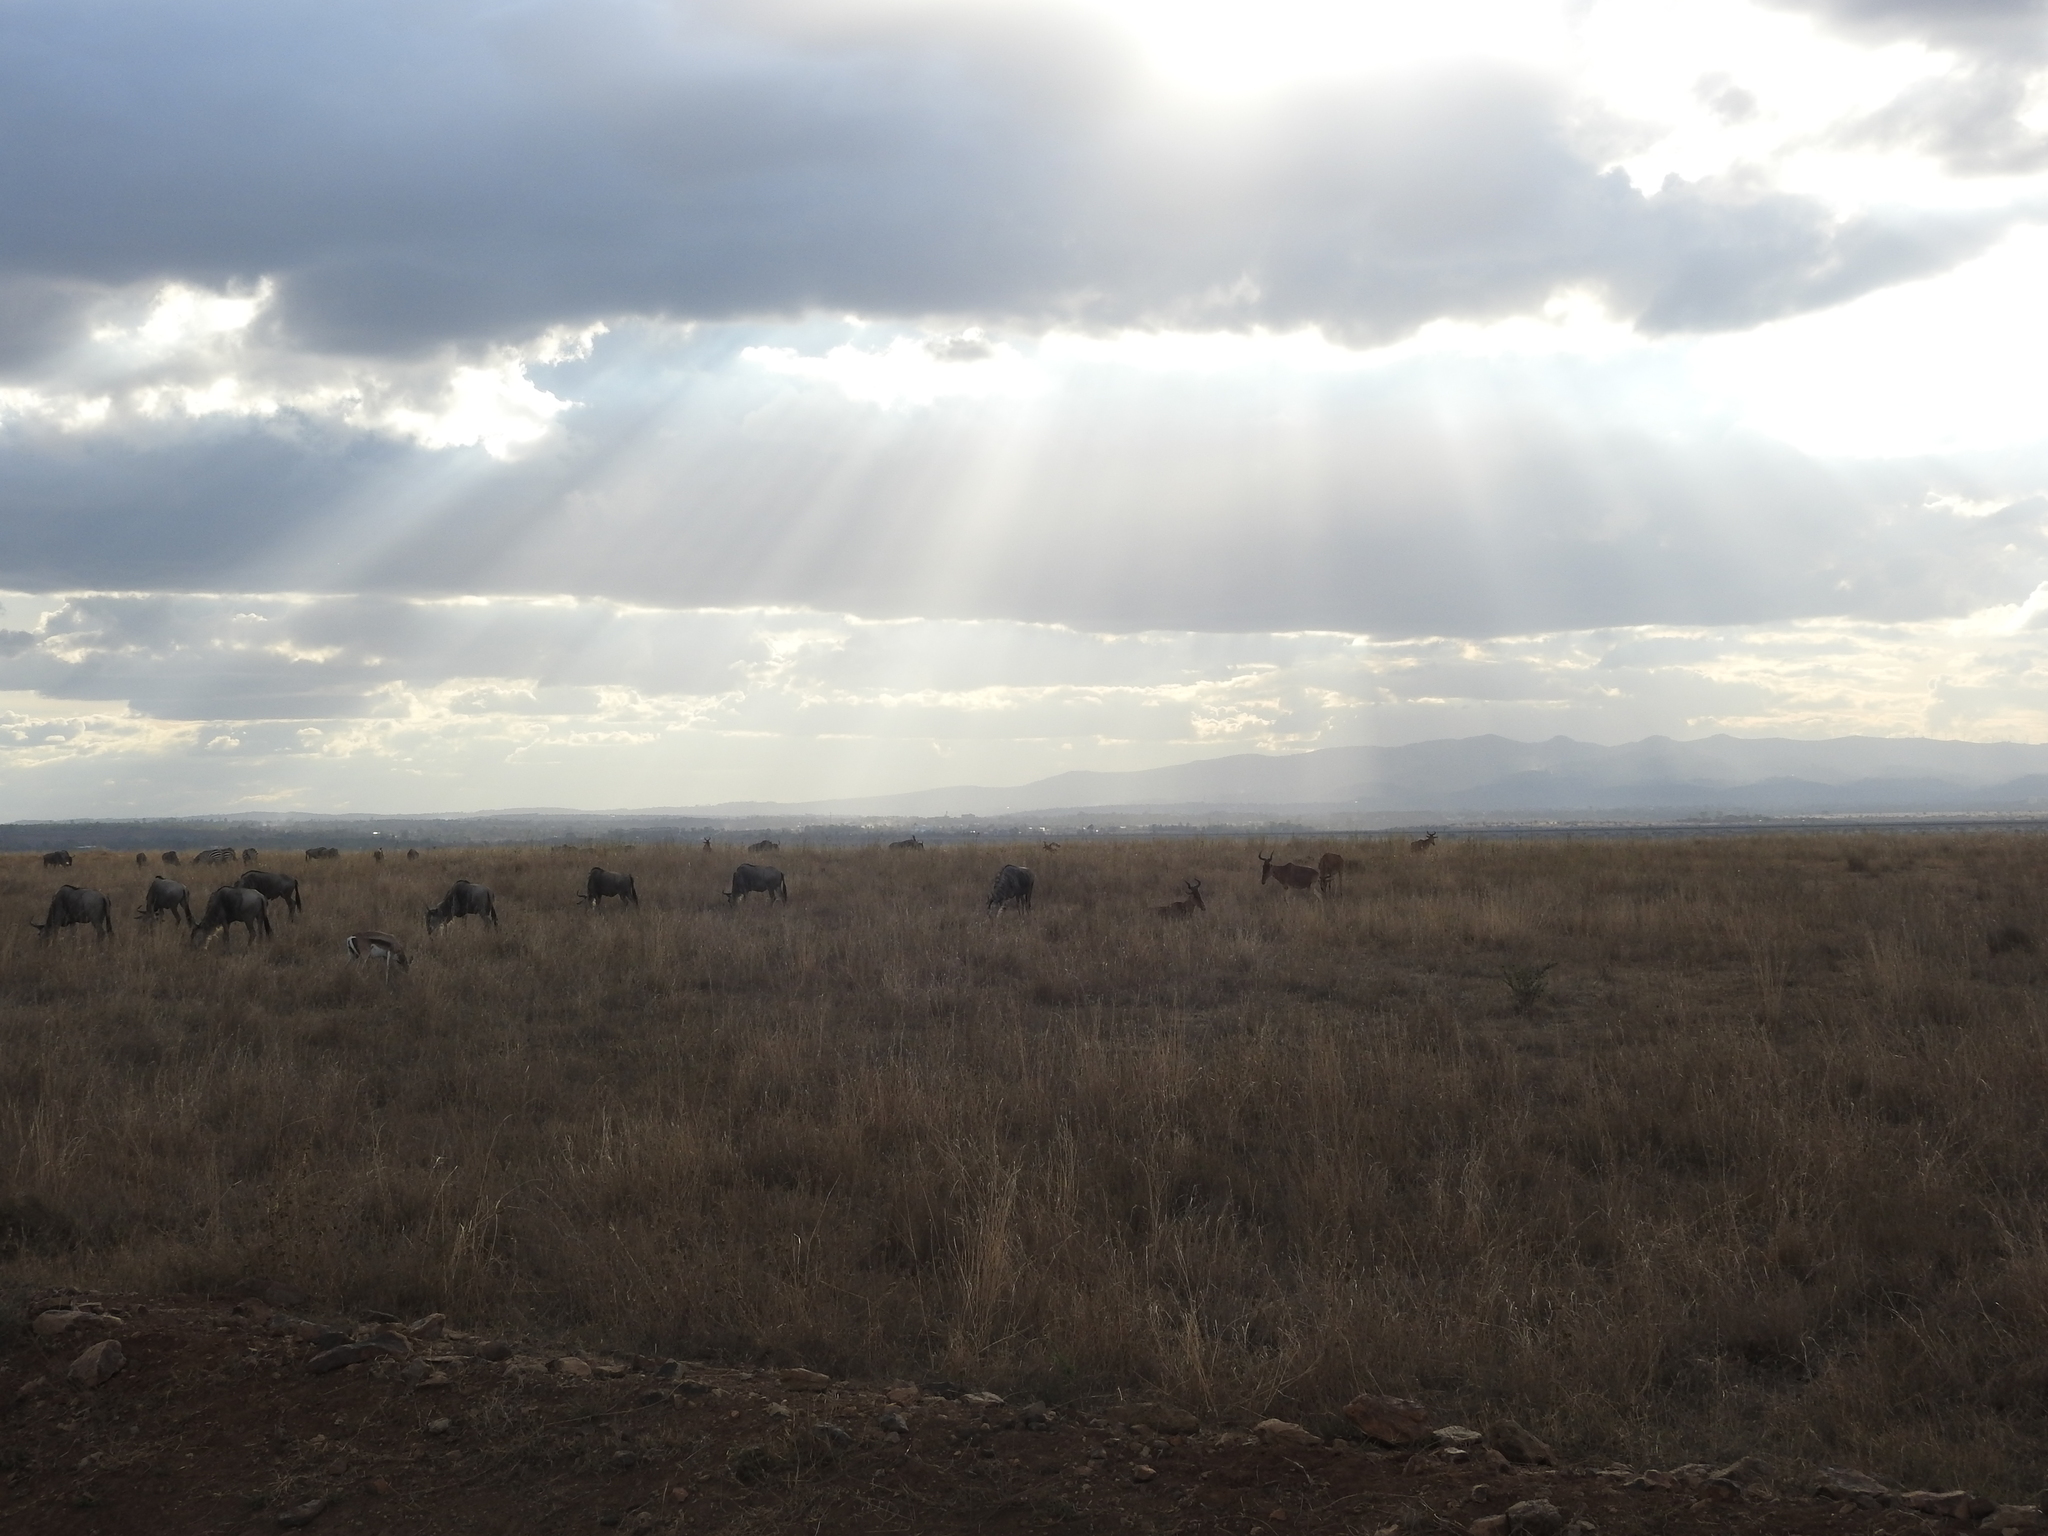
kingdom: Animalia
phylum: Chordata
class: Mammalia
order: Artiodactyla
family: Bovidae
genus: Connochaetes
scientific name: Connochaetes taurinus
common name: Blue wildebeest
